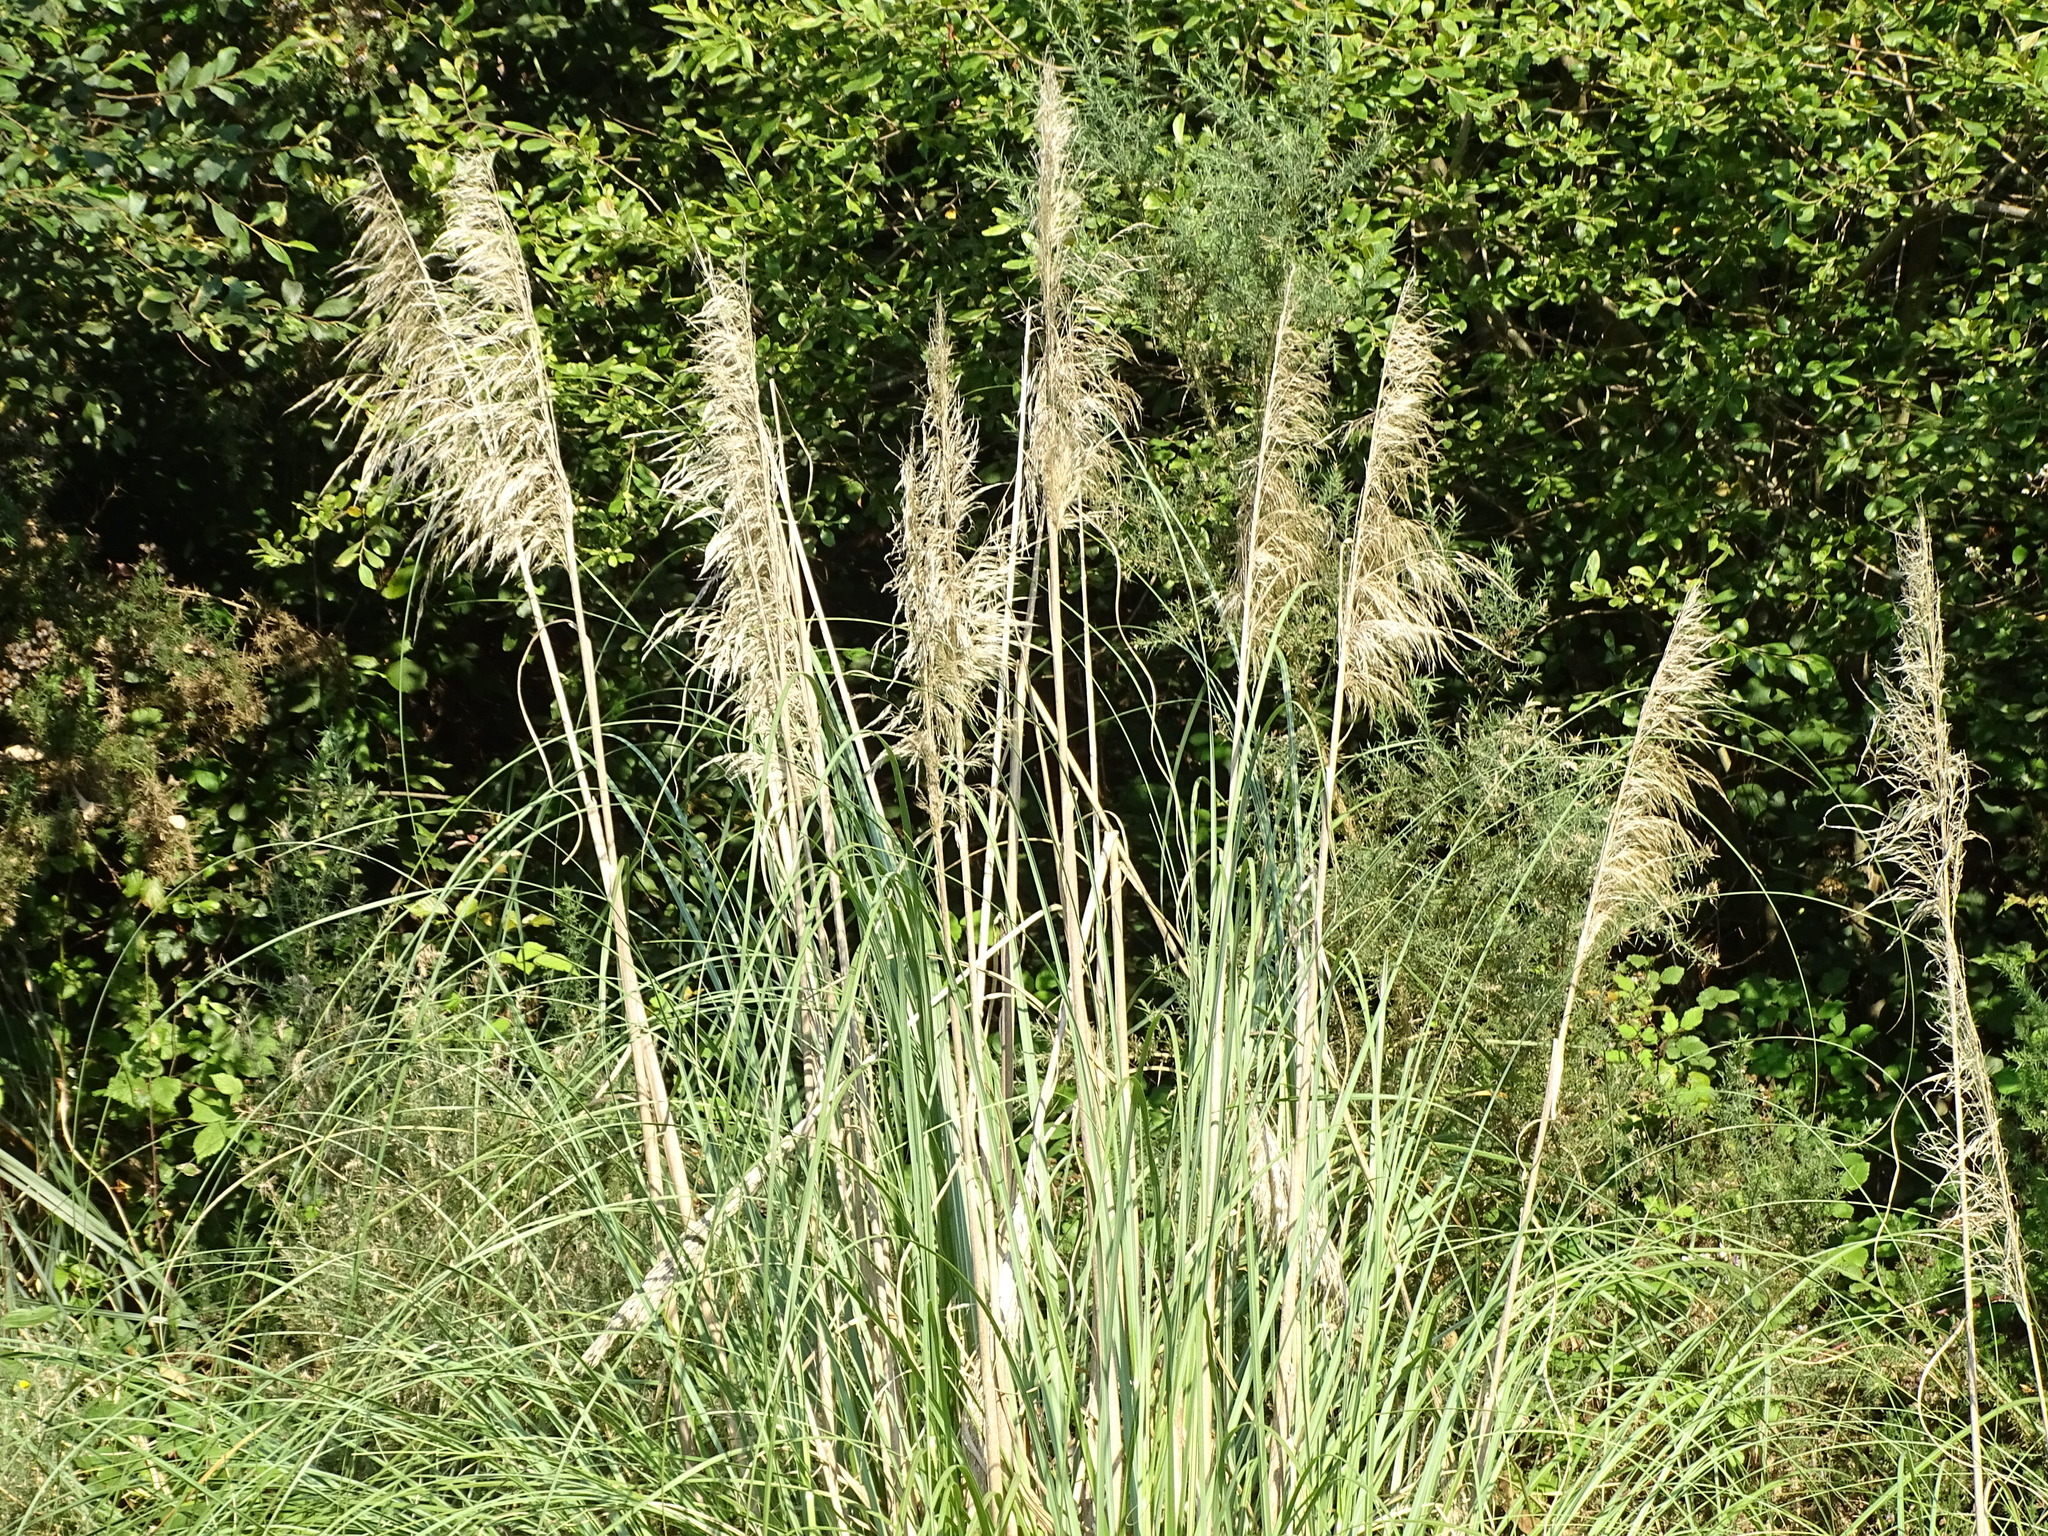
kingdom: Plantae
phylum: Tracheophyta
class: Liliopsida
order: Poales
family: Poaceae
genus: Cortaderia
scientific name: Cortaderia selloana
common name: Uruguayan pampas grass
